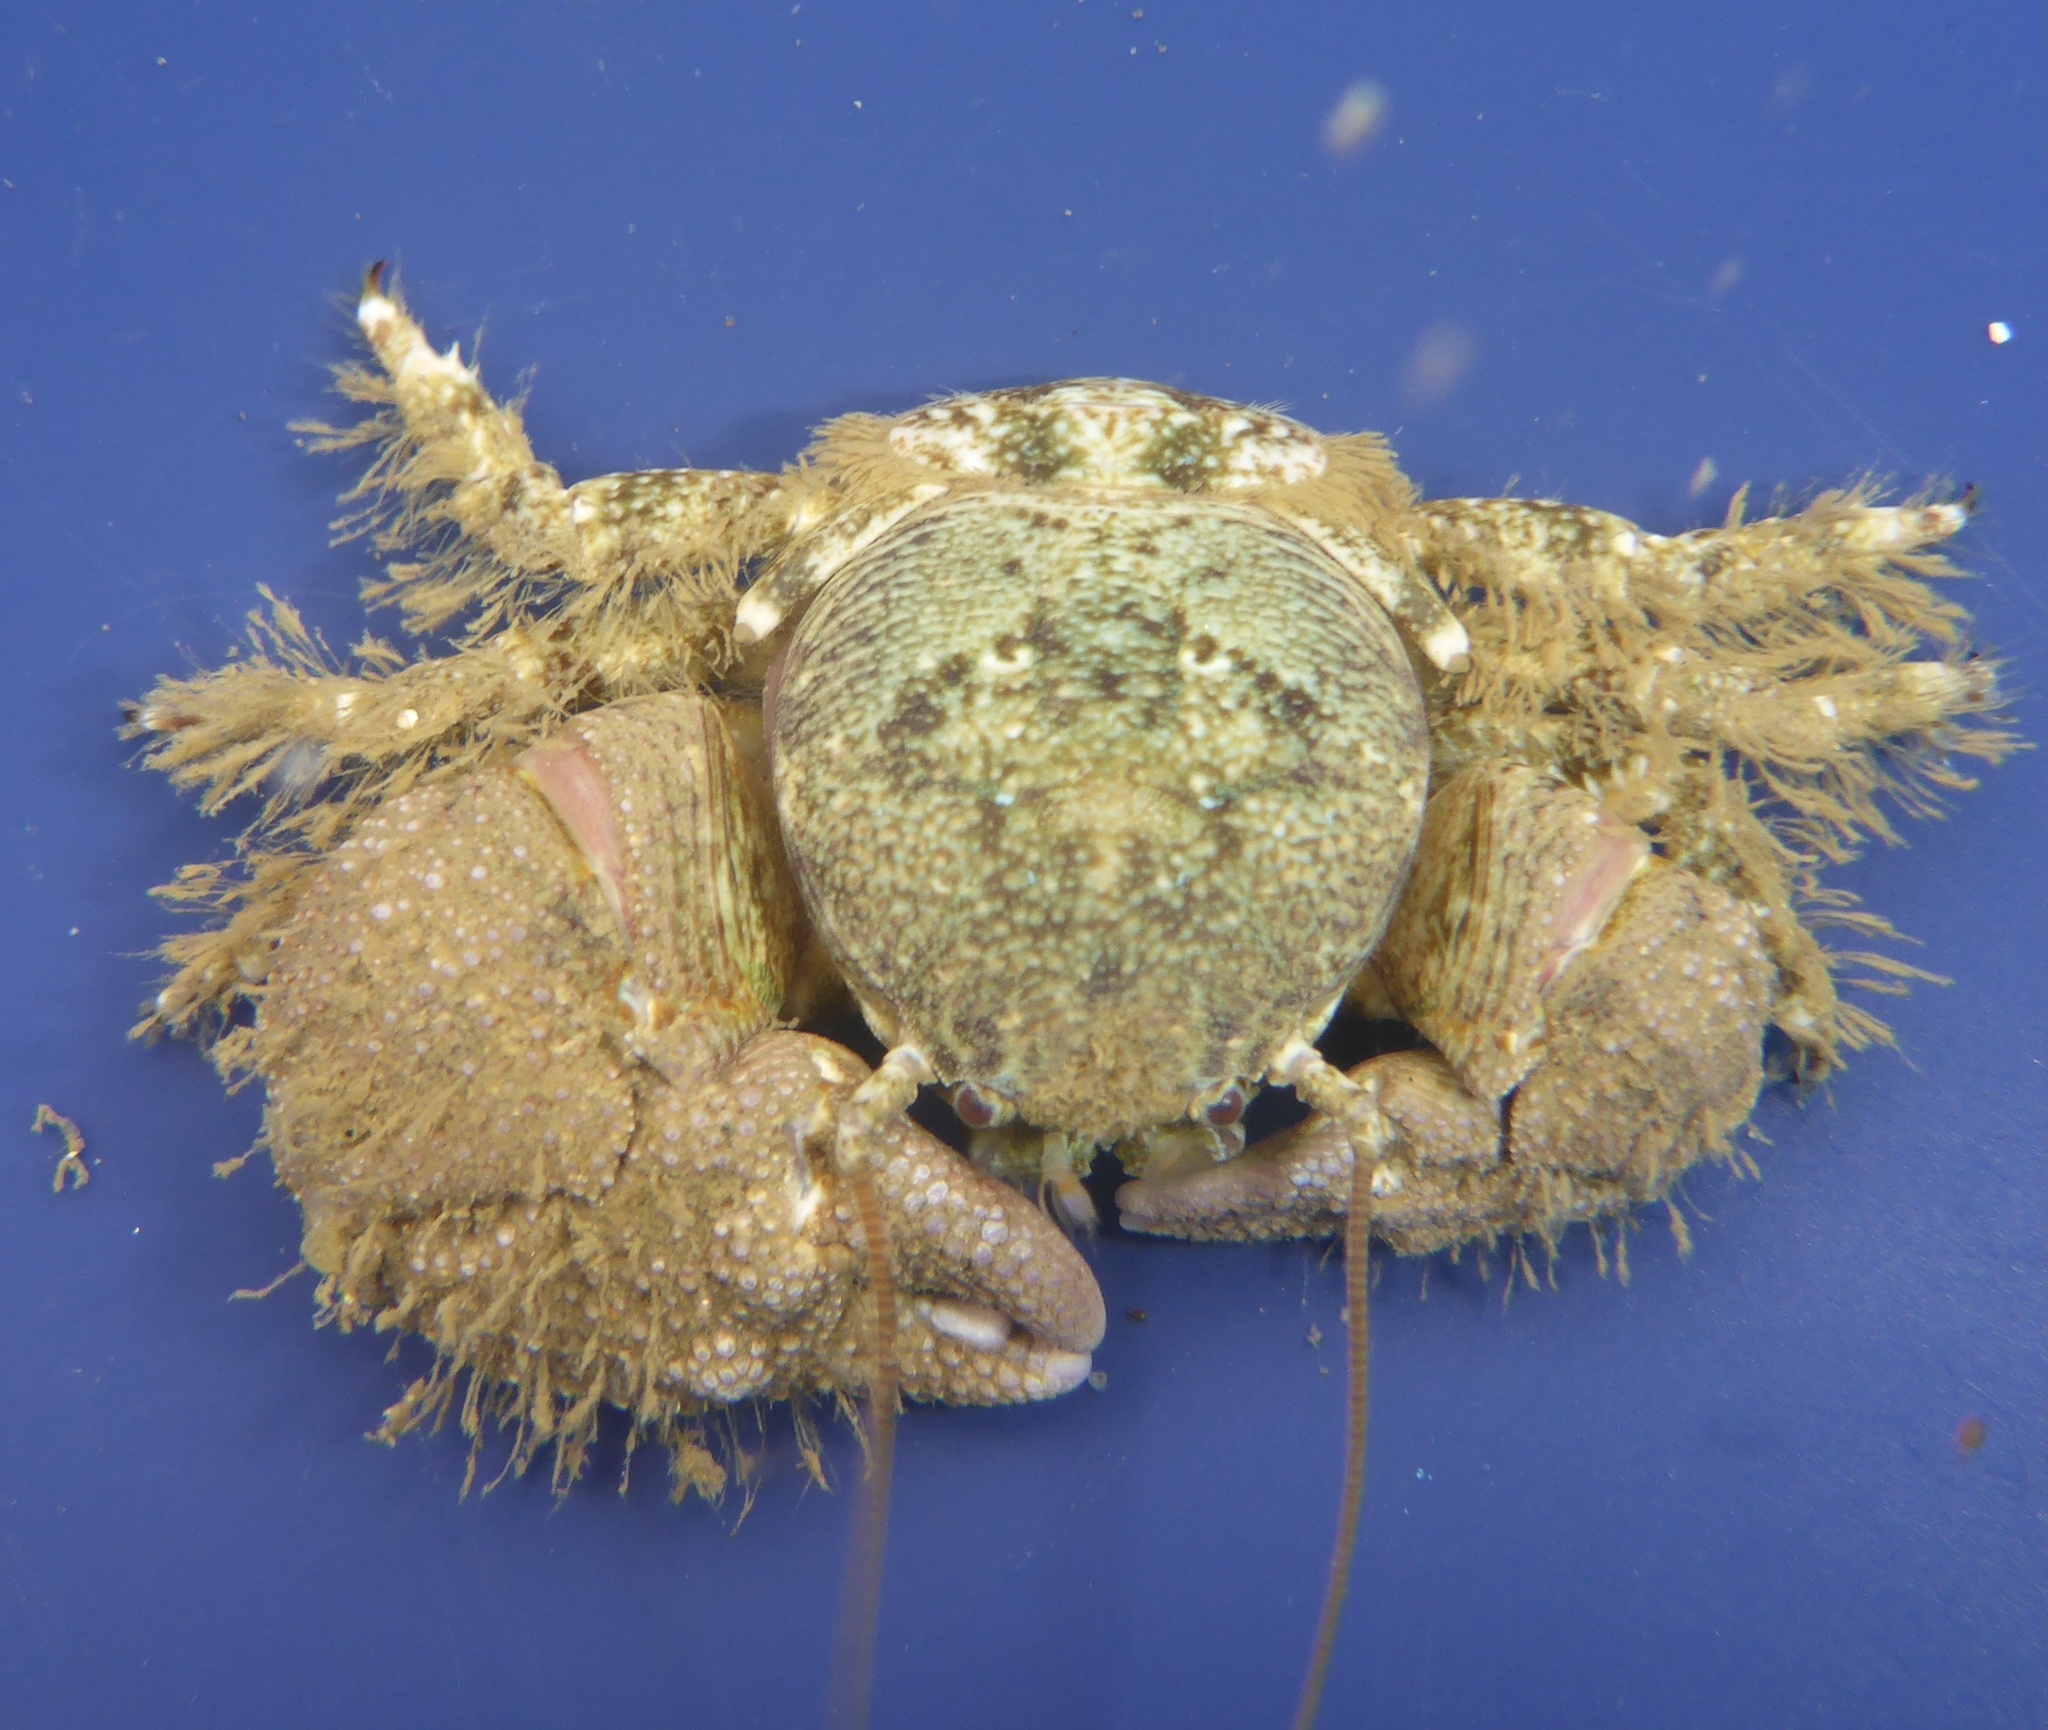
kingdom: Animalia
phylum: Arthropoda
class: Malacostraca
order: Decapoda
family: Porcellanidae
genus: Pachycheles
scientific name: Pachycheles rudis
